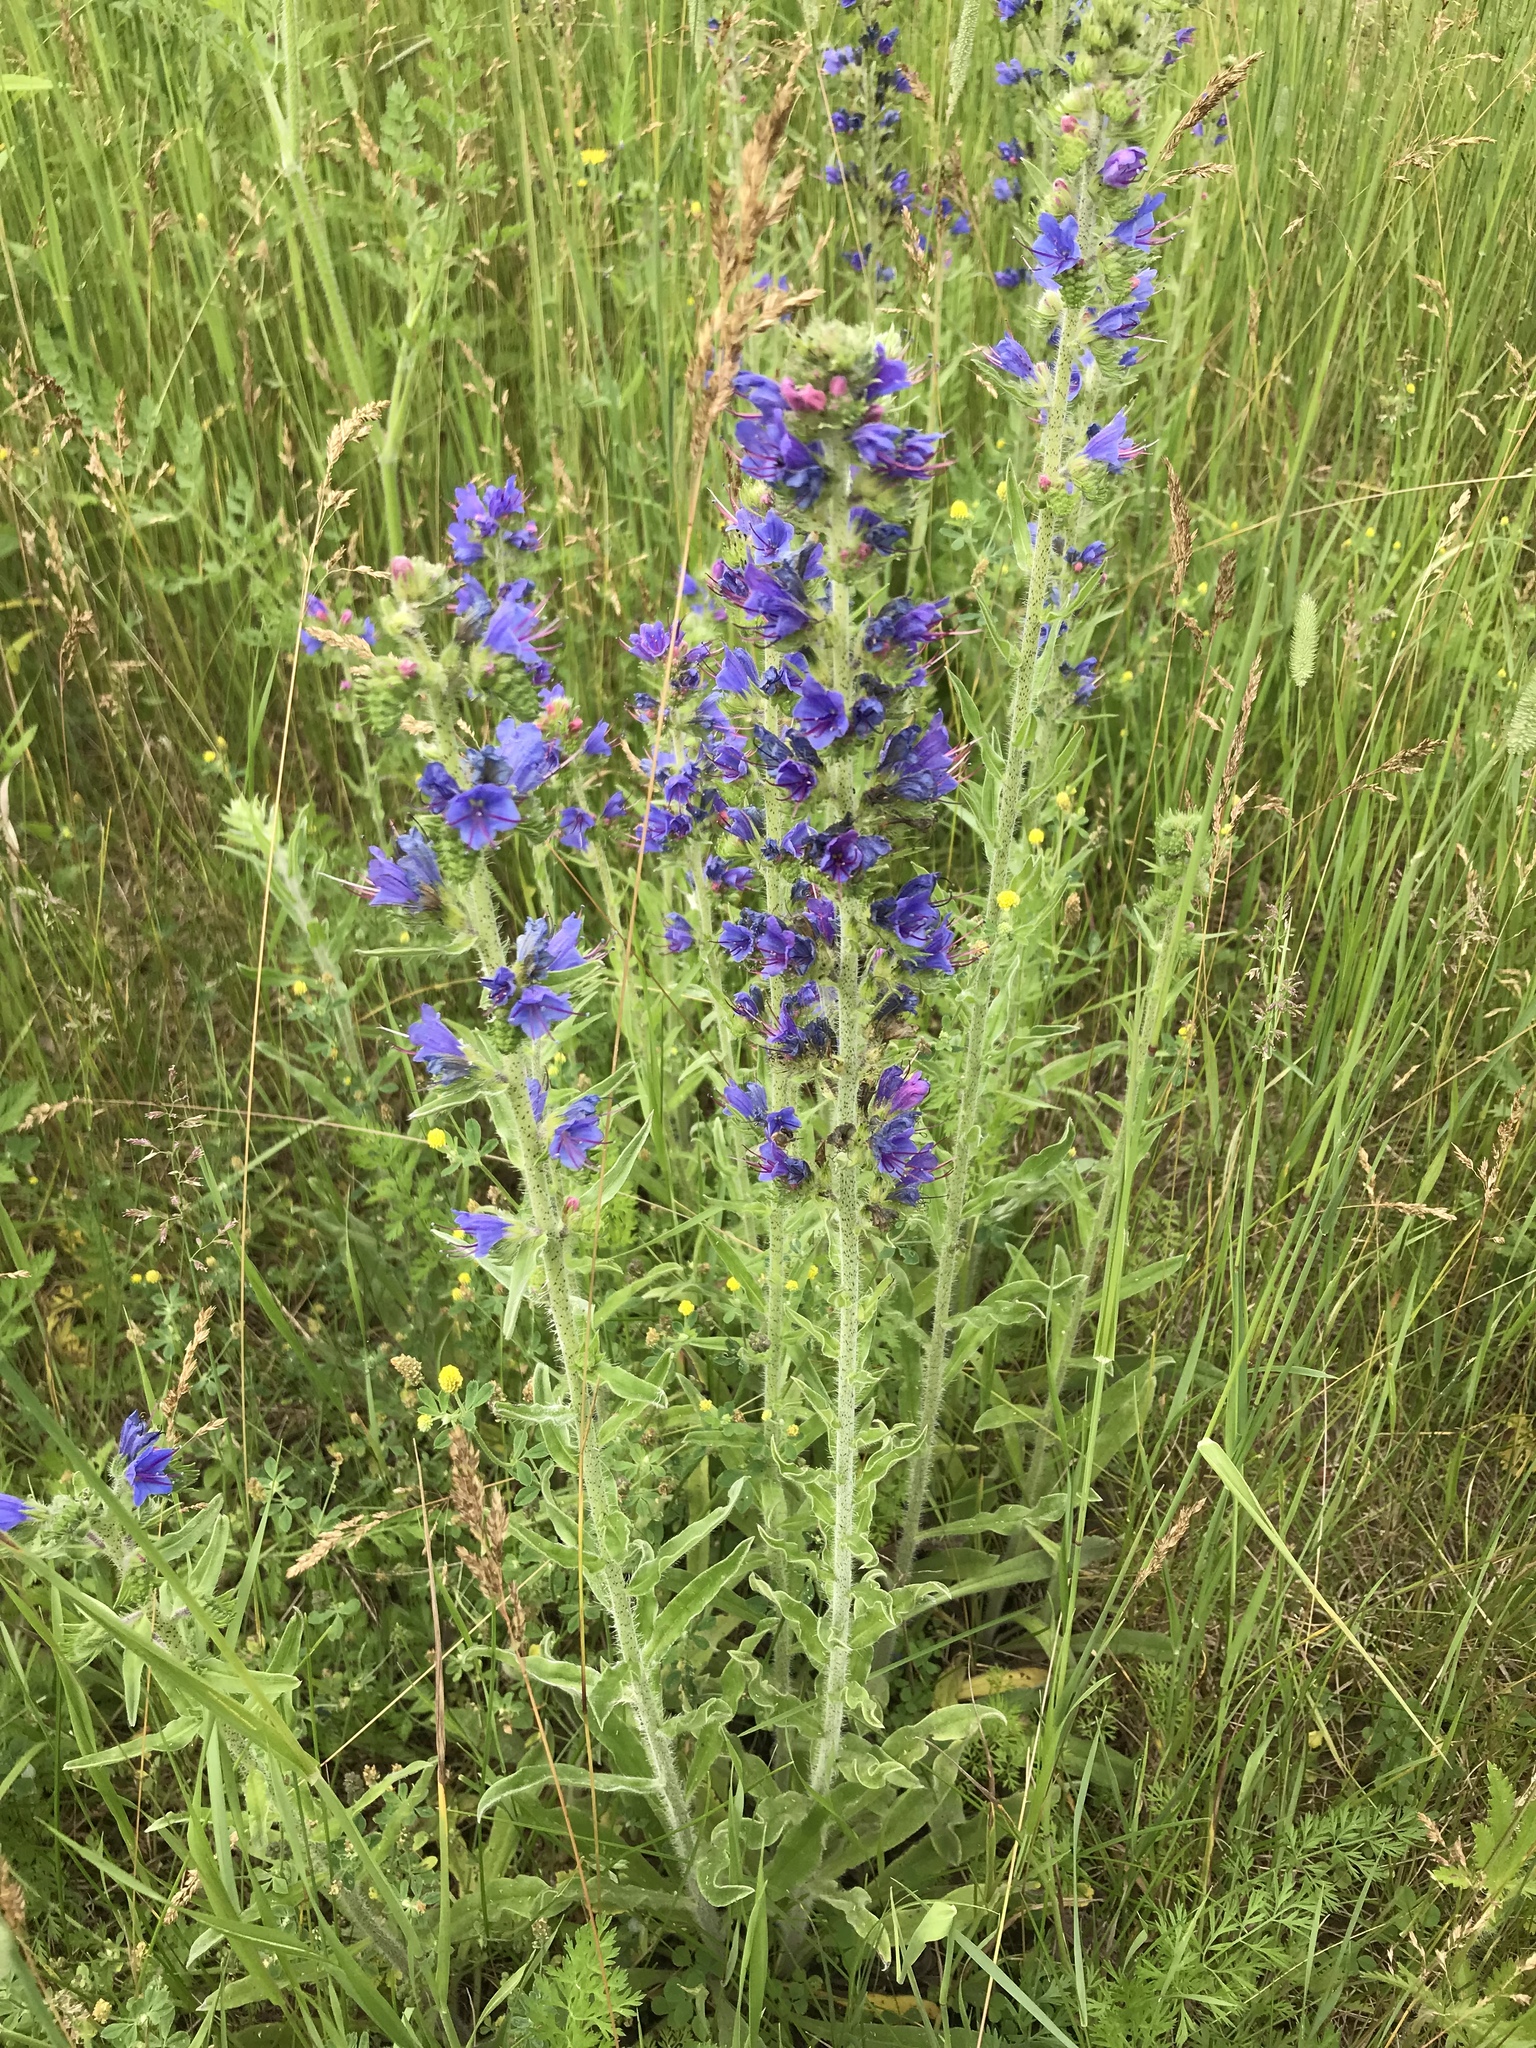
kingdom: Plantae
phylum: Tracheophyta
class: Magnoliopsida
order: Boraginales
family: Boraginaceae
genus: Echium
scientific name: Echium vulgare
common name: Common viper's bugloss
